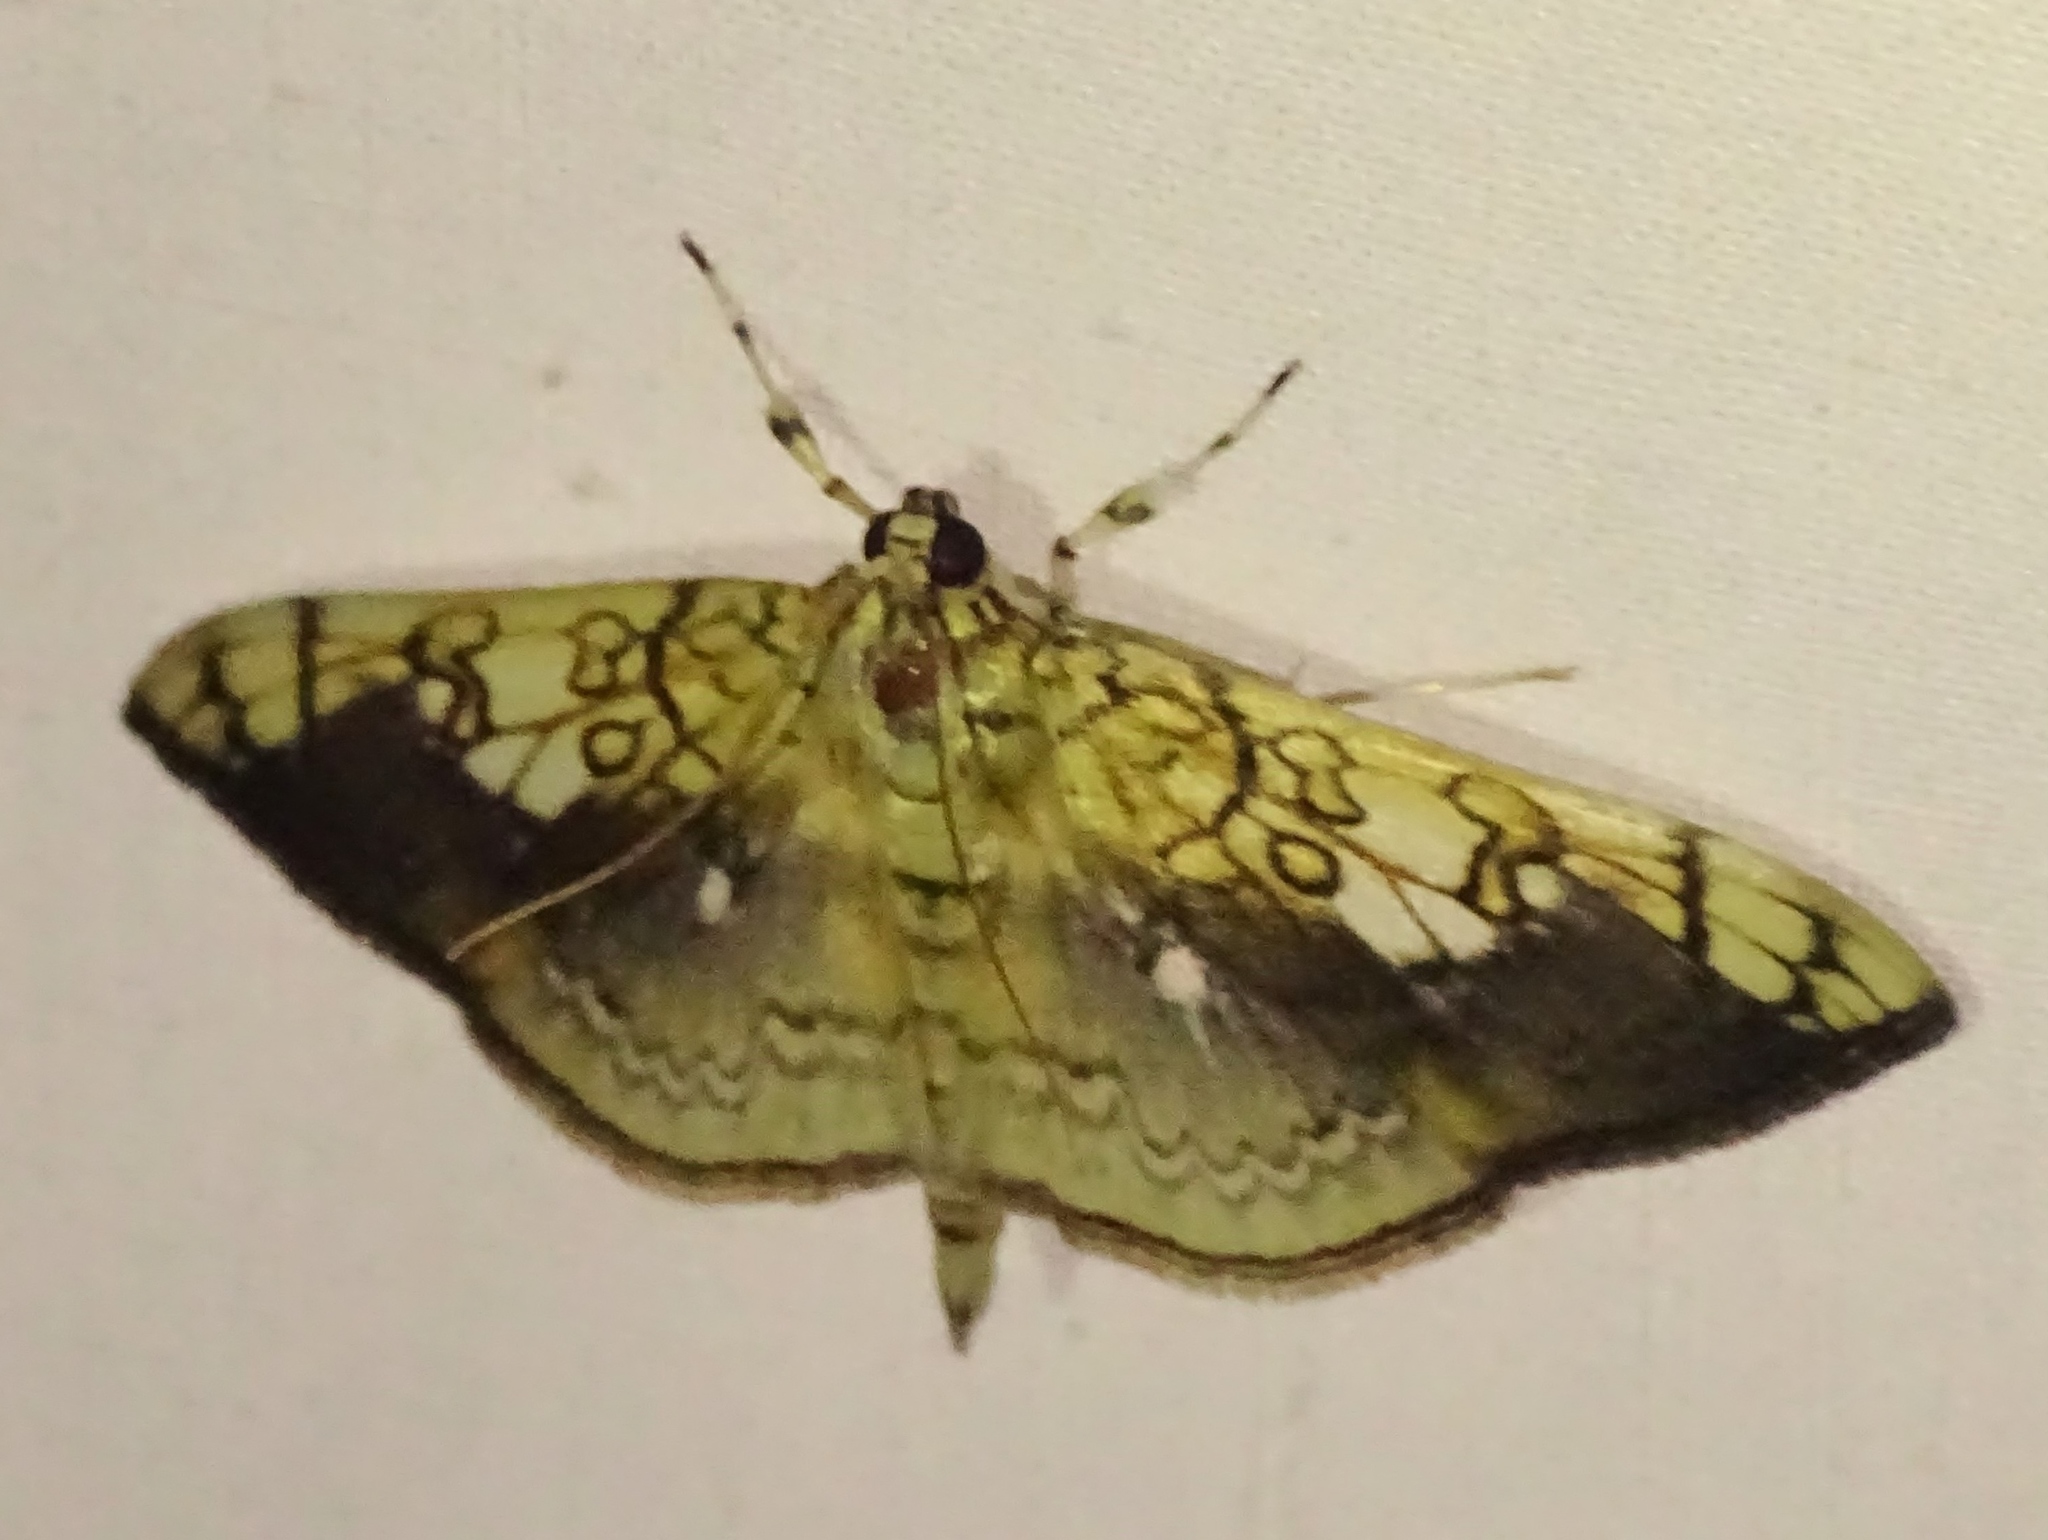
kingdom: Animalia
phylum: Arthropoda
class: Insecta
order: Lepidoptera
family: Crambidae
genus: Pantographa
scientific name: Pantographa limata
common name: Basswood leafroller moth
